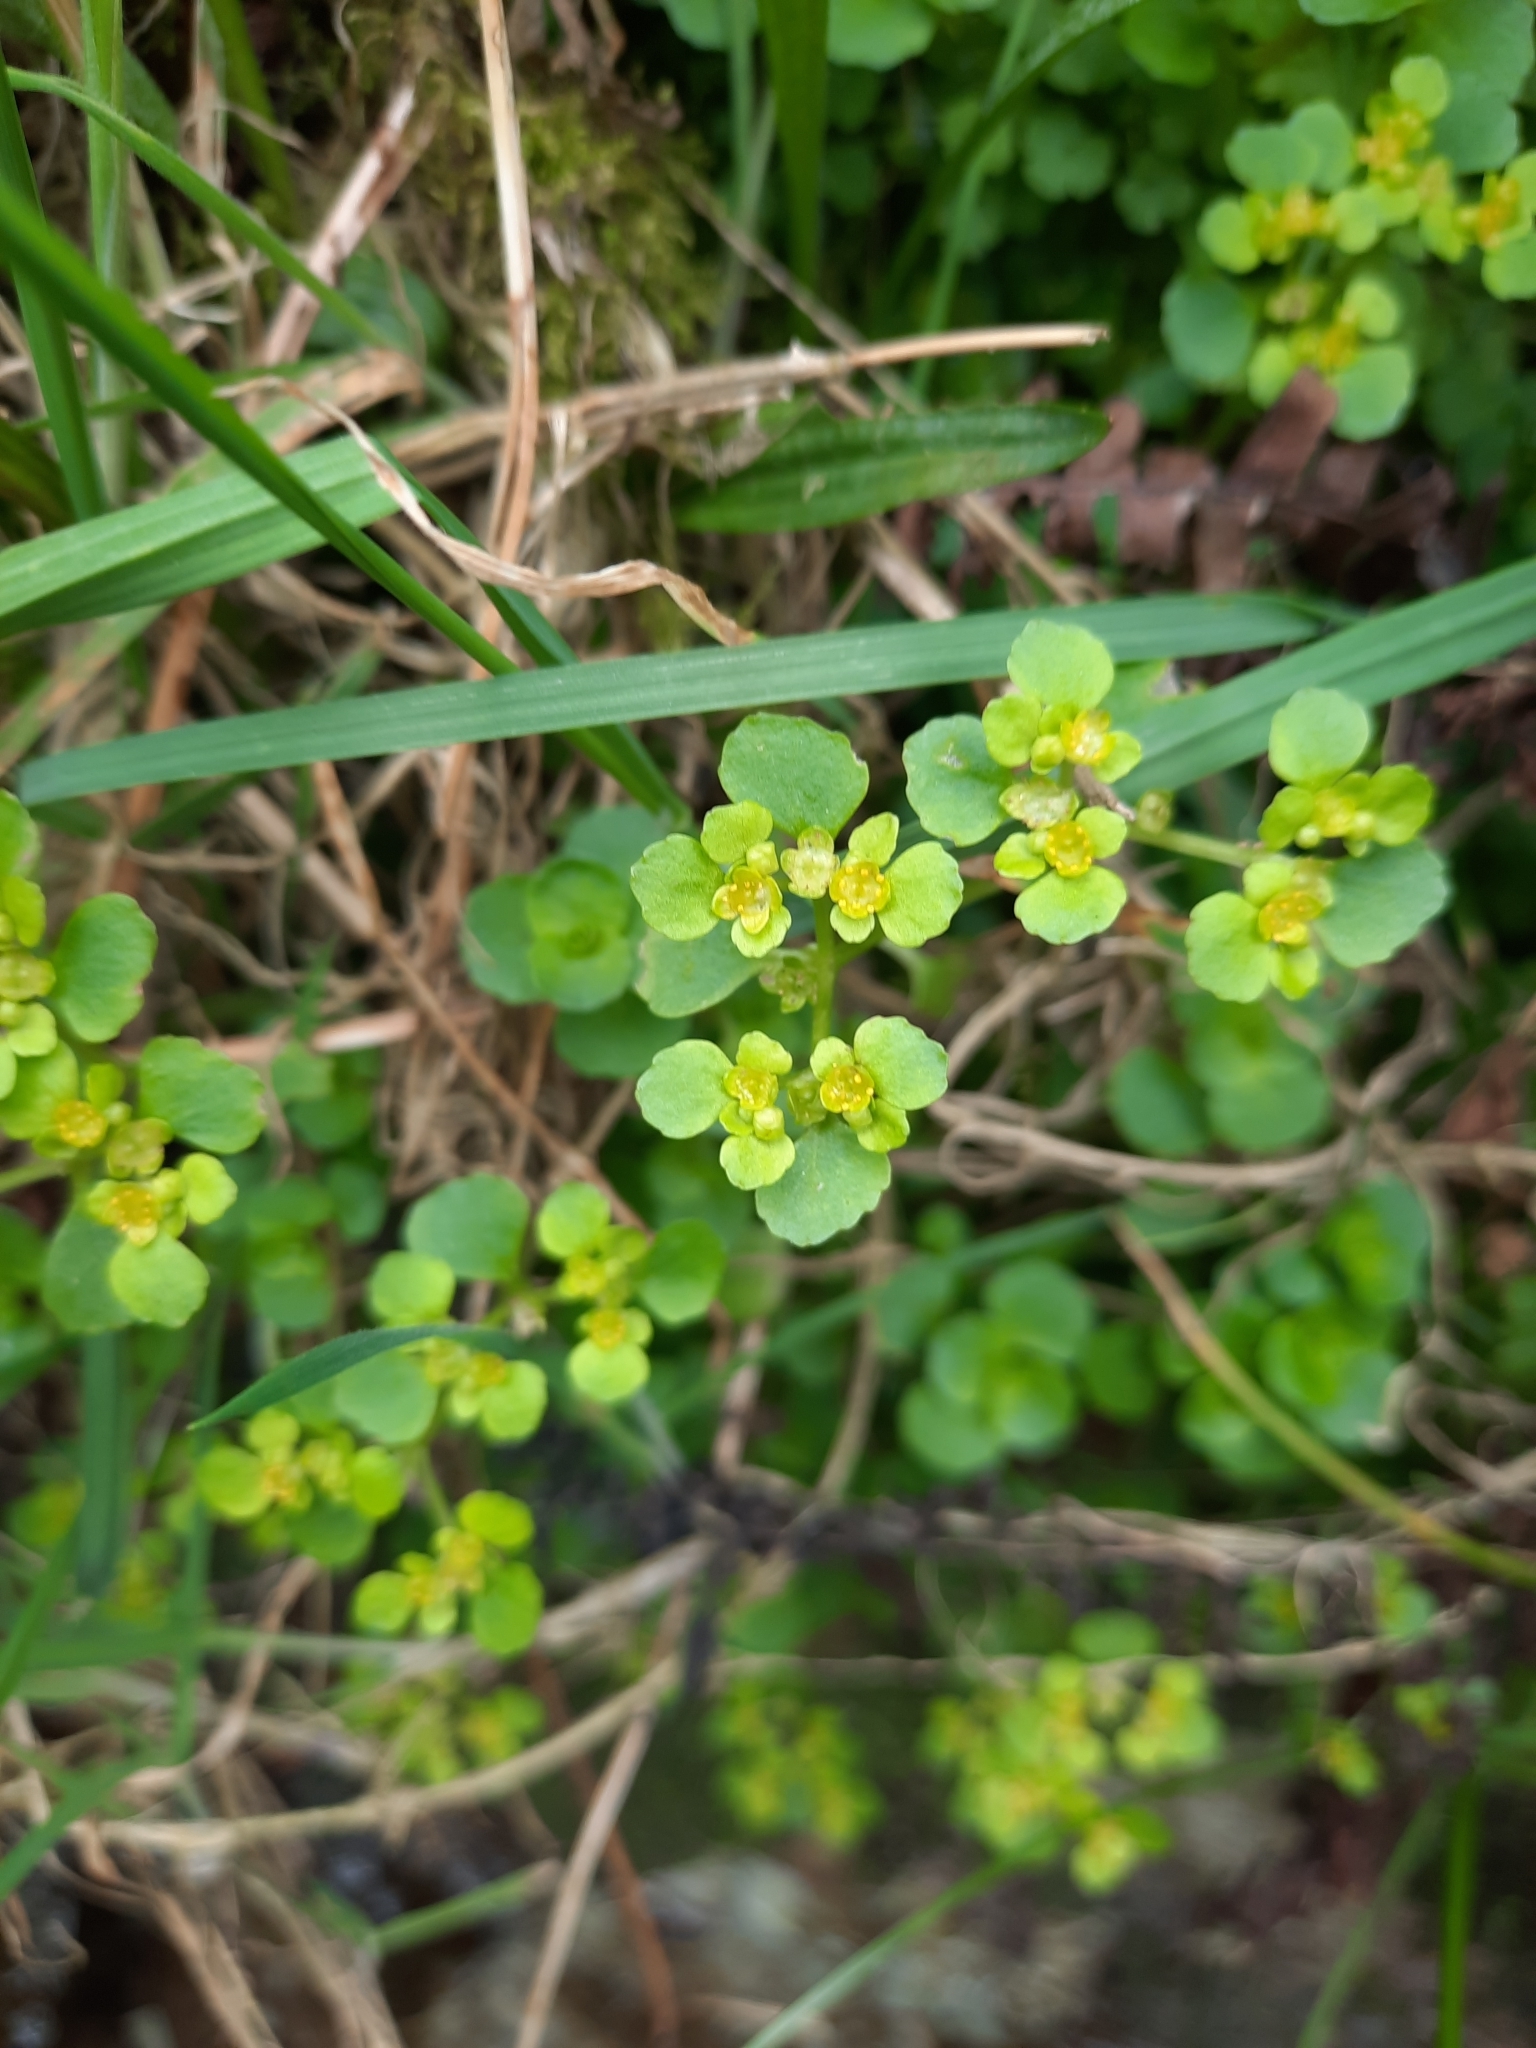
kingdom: Plantae
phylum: Tracheophyta
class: Magnoliopsida
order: Saxifragales
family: Saxifragaceae
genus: Chrysosplenium
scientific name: Chrysosplenium oppositifolium
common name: Opposite-leaved golden-saxifrage
